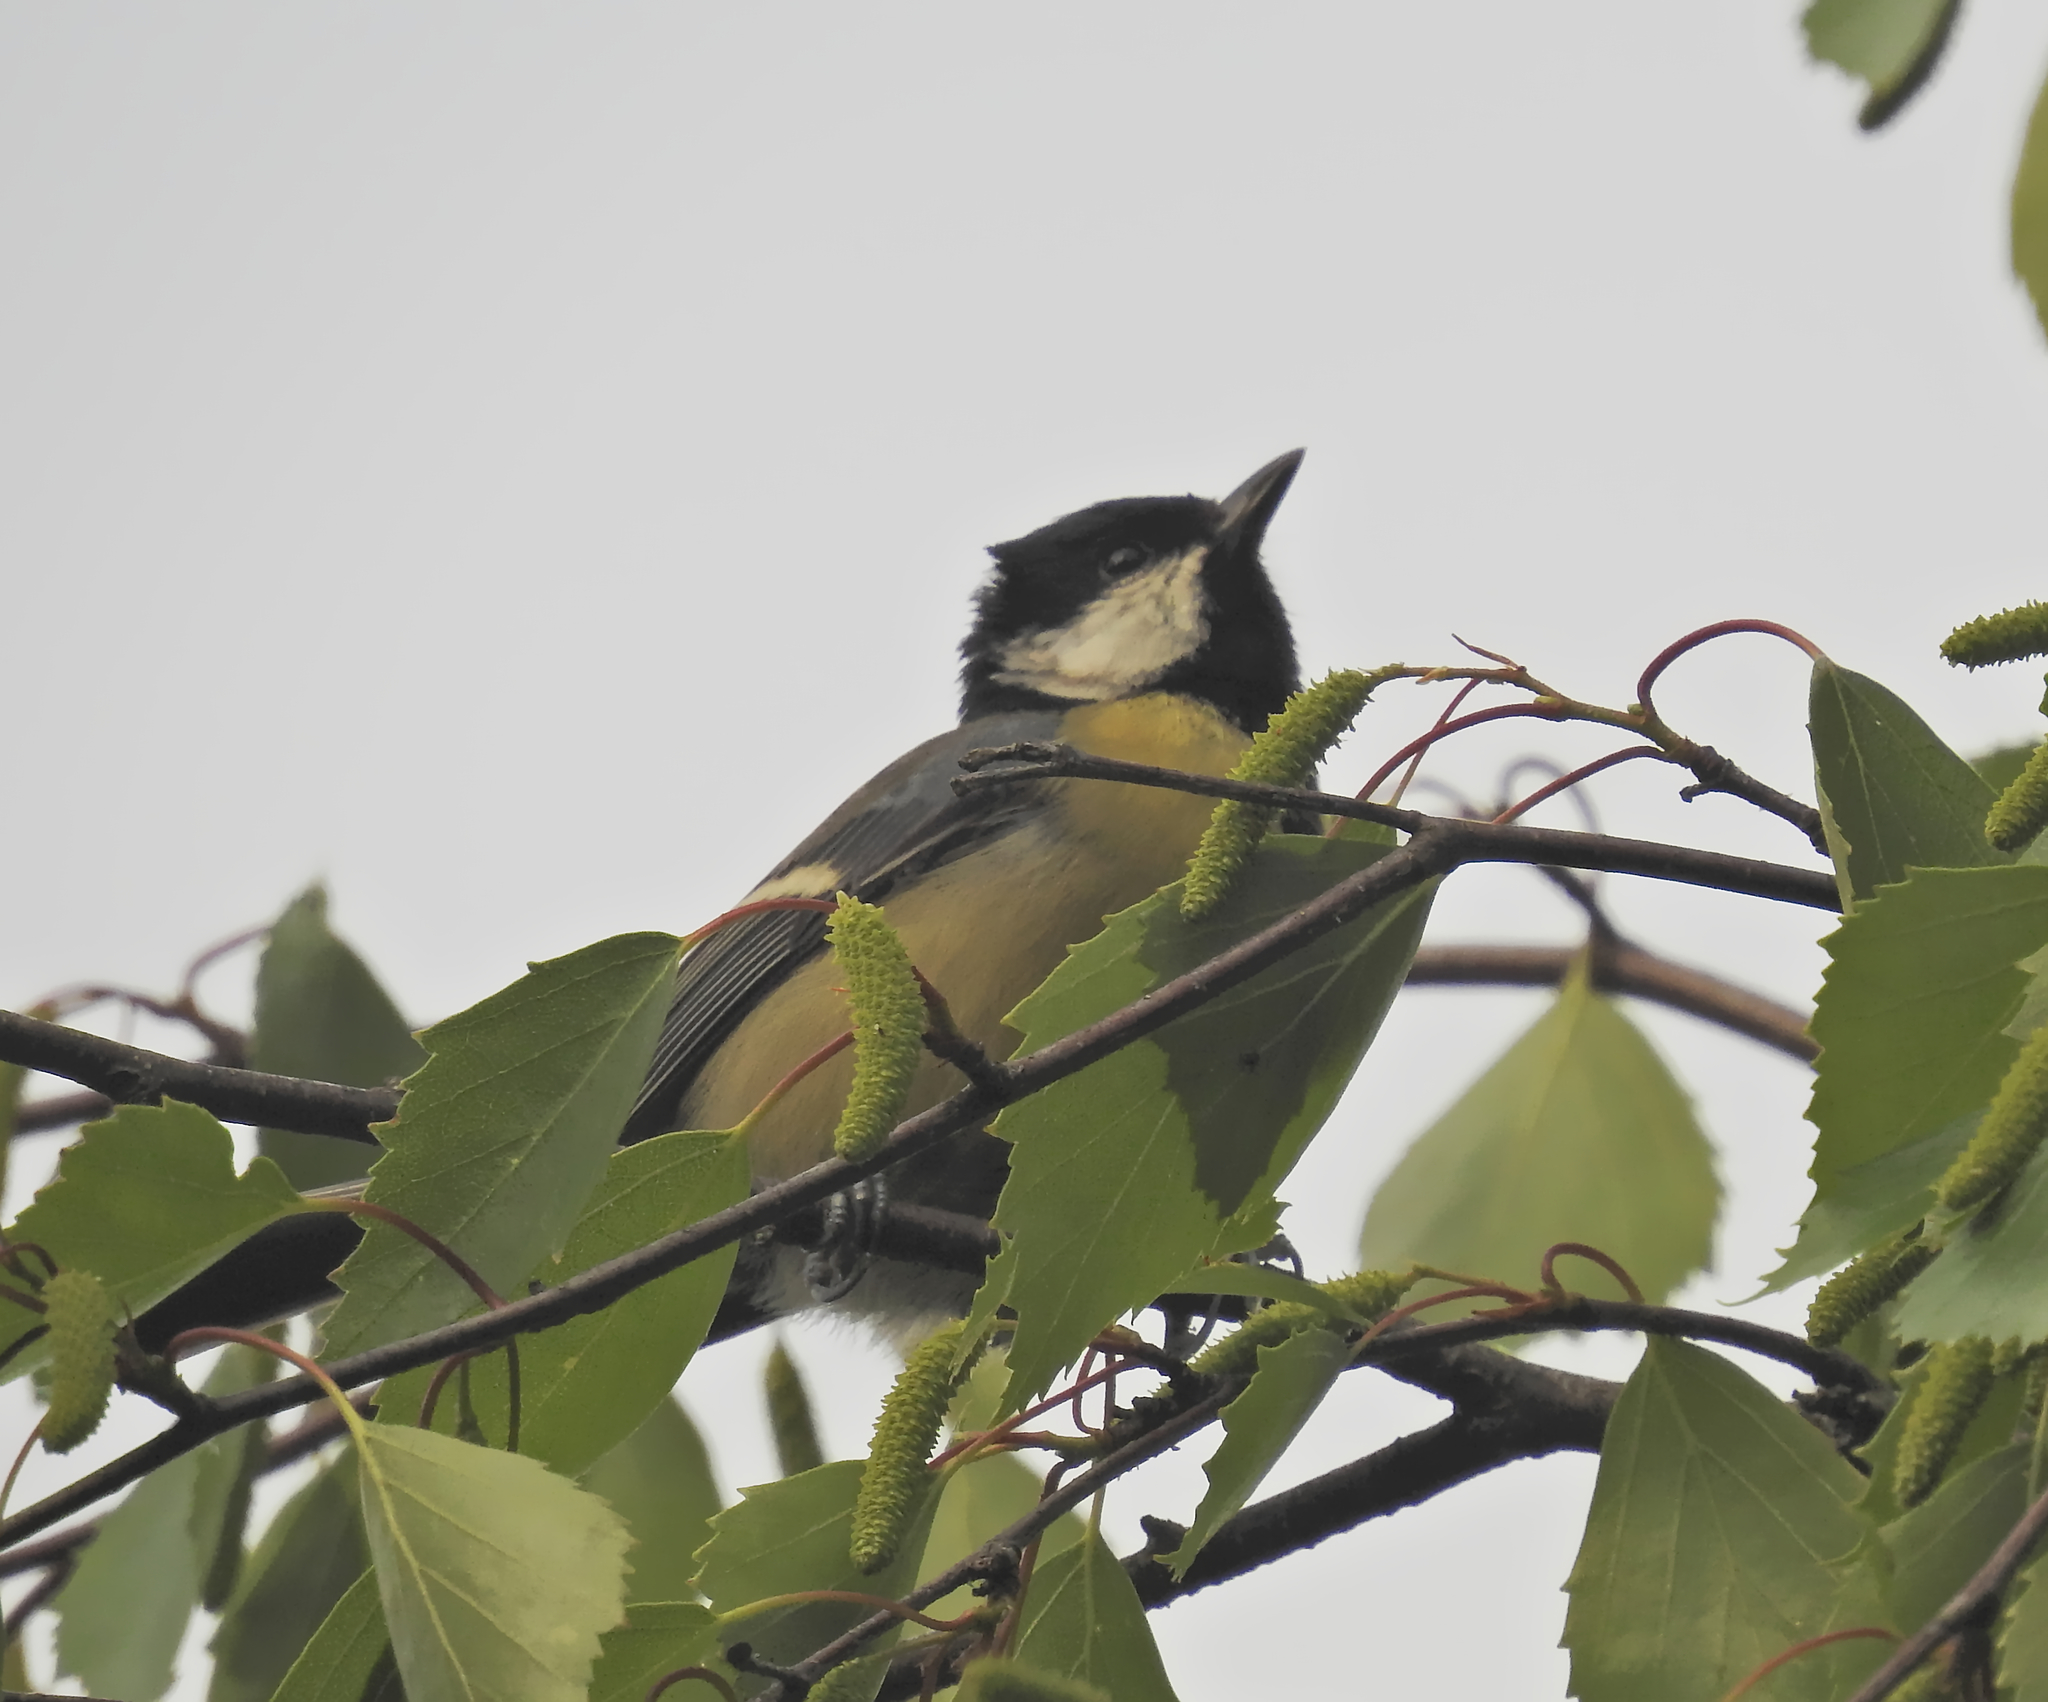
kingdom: Animalia
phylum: Chordata
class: Aves
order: Passeriformes
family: Paridae
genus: Parus
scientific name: Parus major
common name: Great tit
